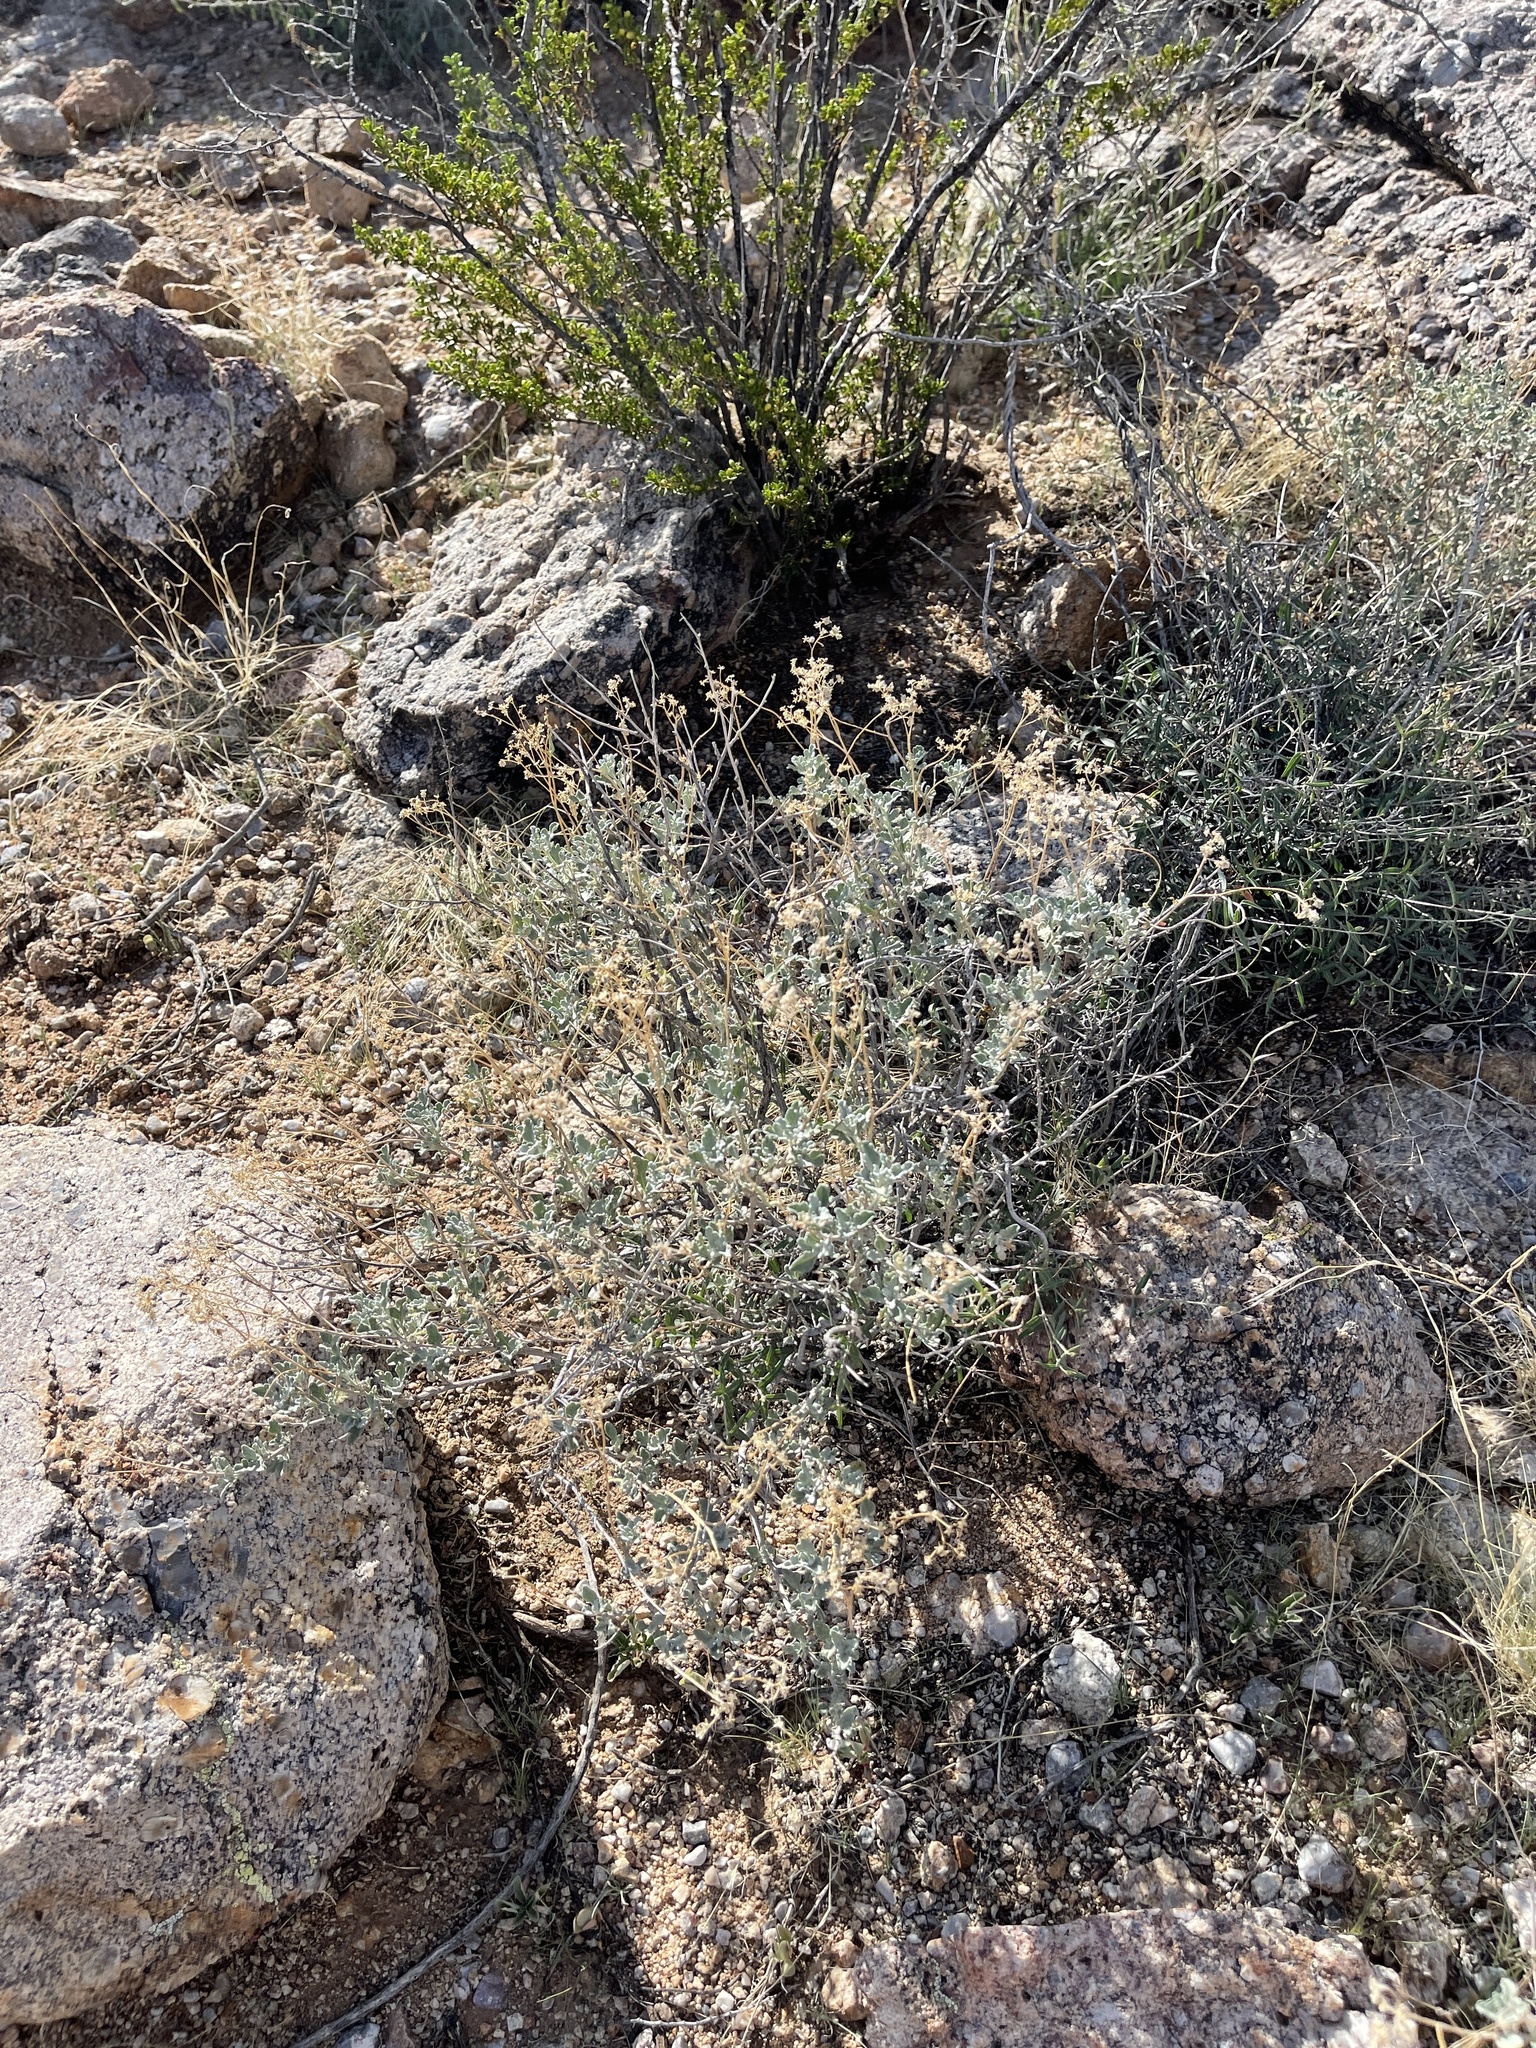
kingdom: Plantae
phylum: Tracheophyta
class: Magnoliopsida
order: Asterales
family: Asteraceae
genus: Parthenium
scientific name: Parthenium incanum
